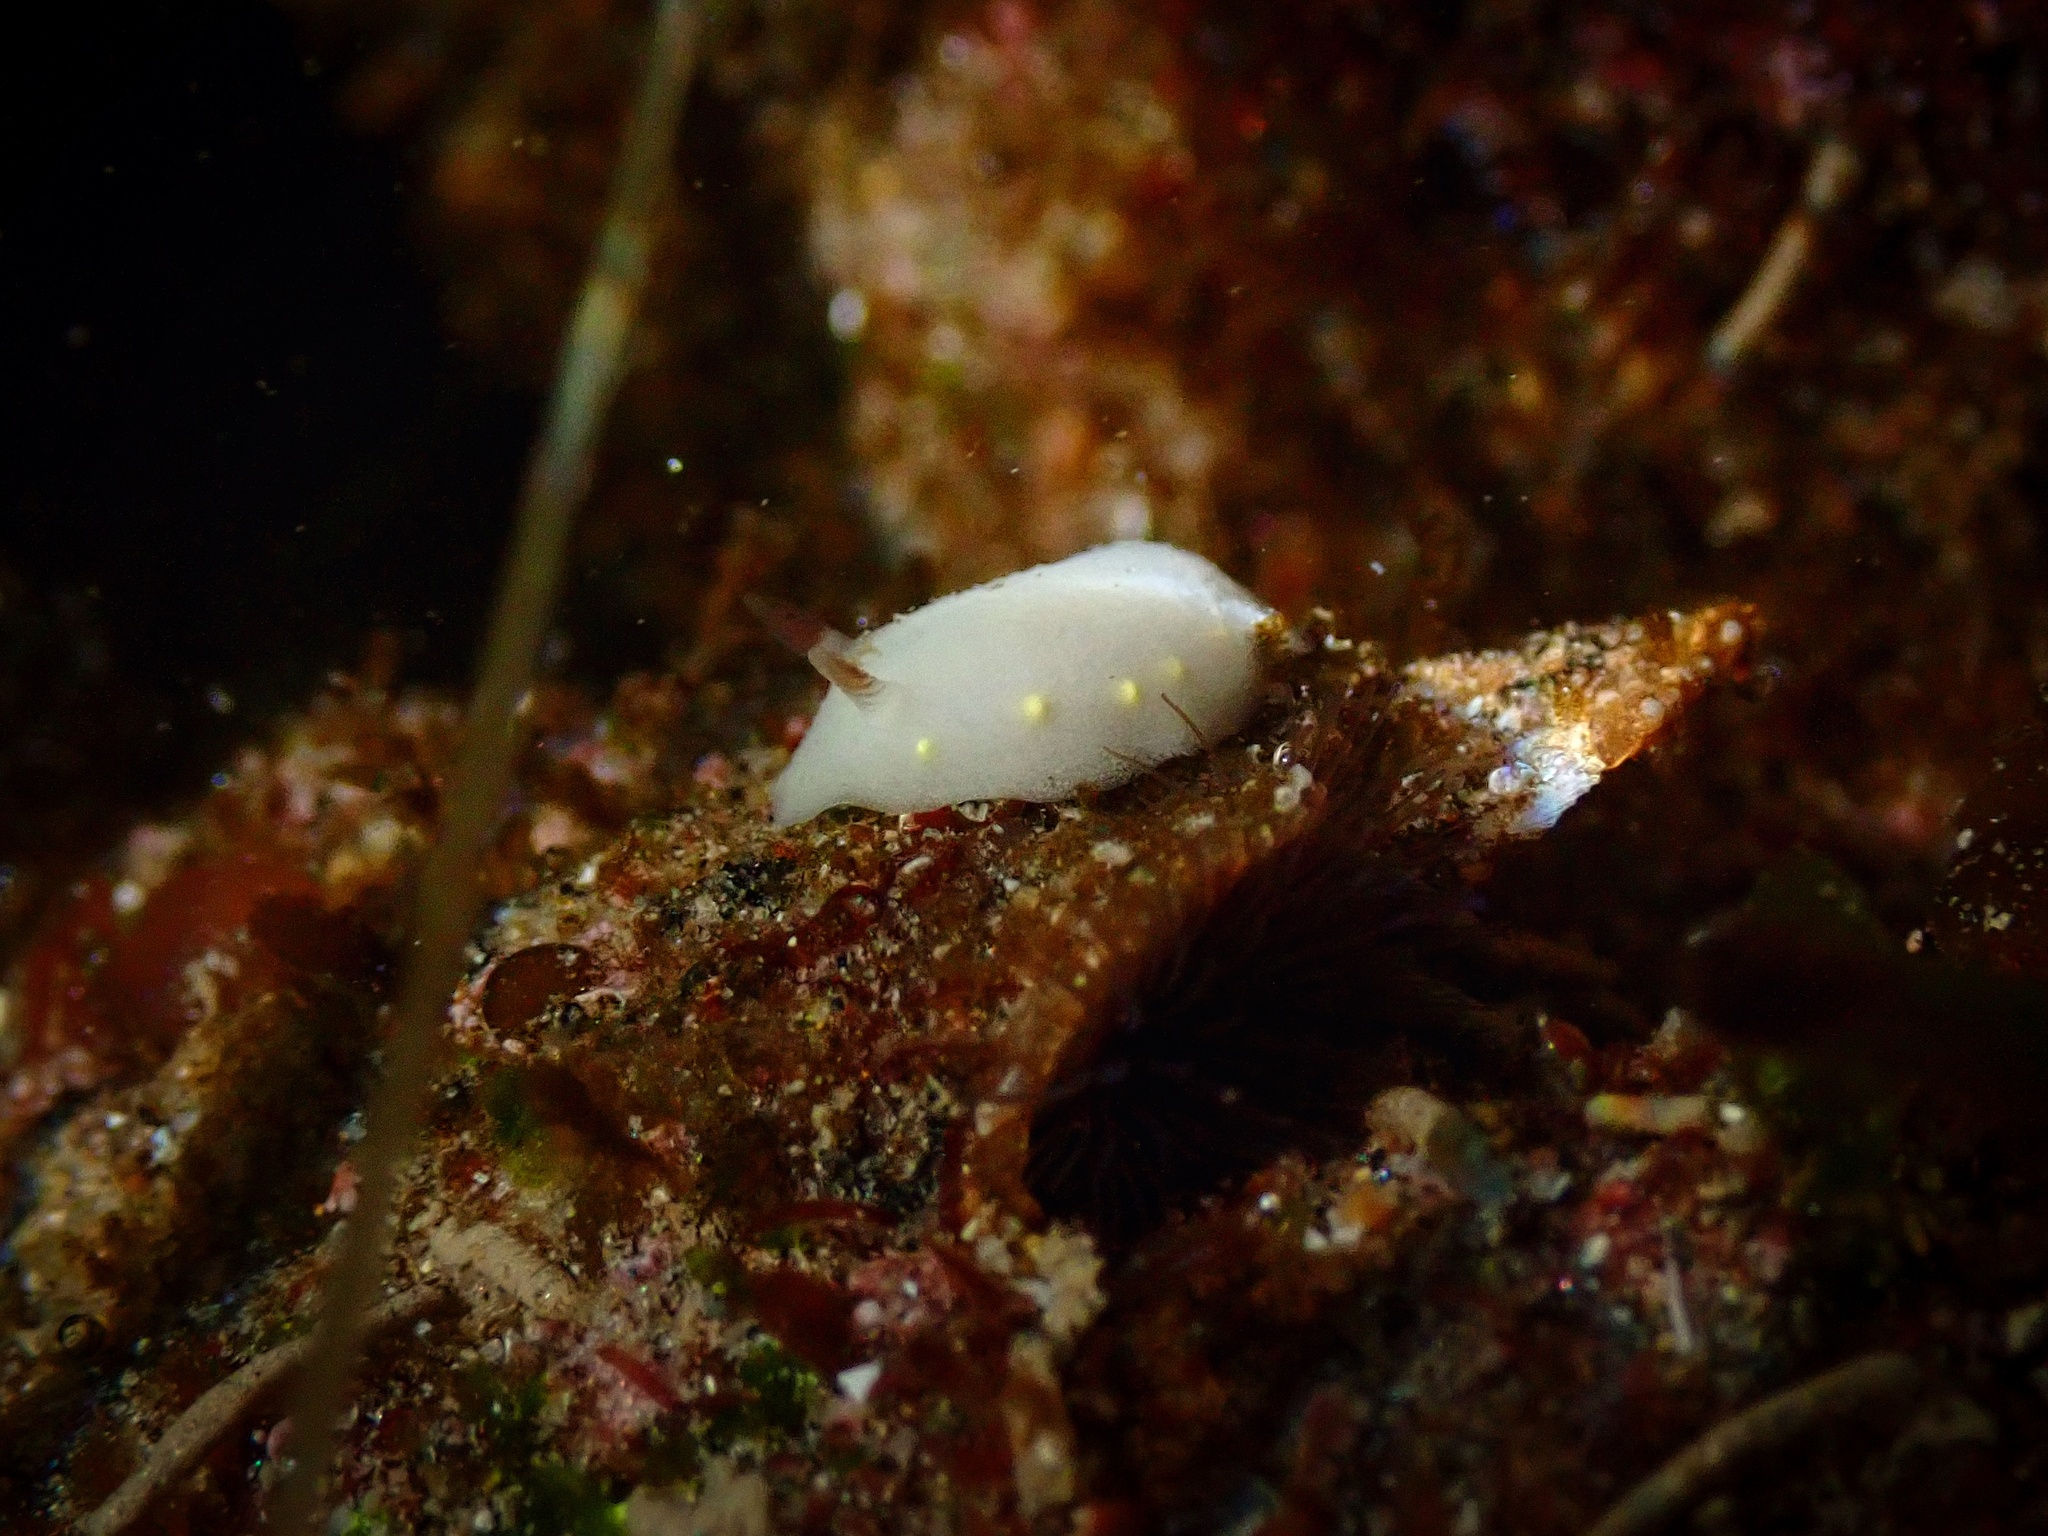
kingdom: Animalia
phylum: Mollusca
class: Gastropoda
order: Nudibranchia
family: Cadlinidae
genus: Cadlina
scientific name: Cadlina flavomaculata
